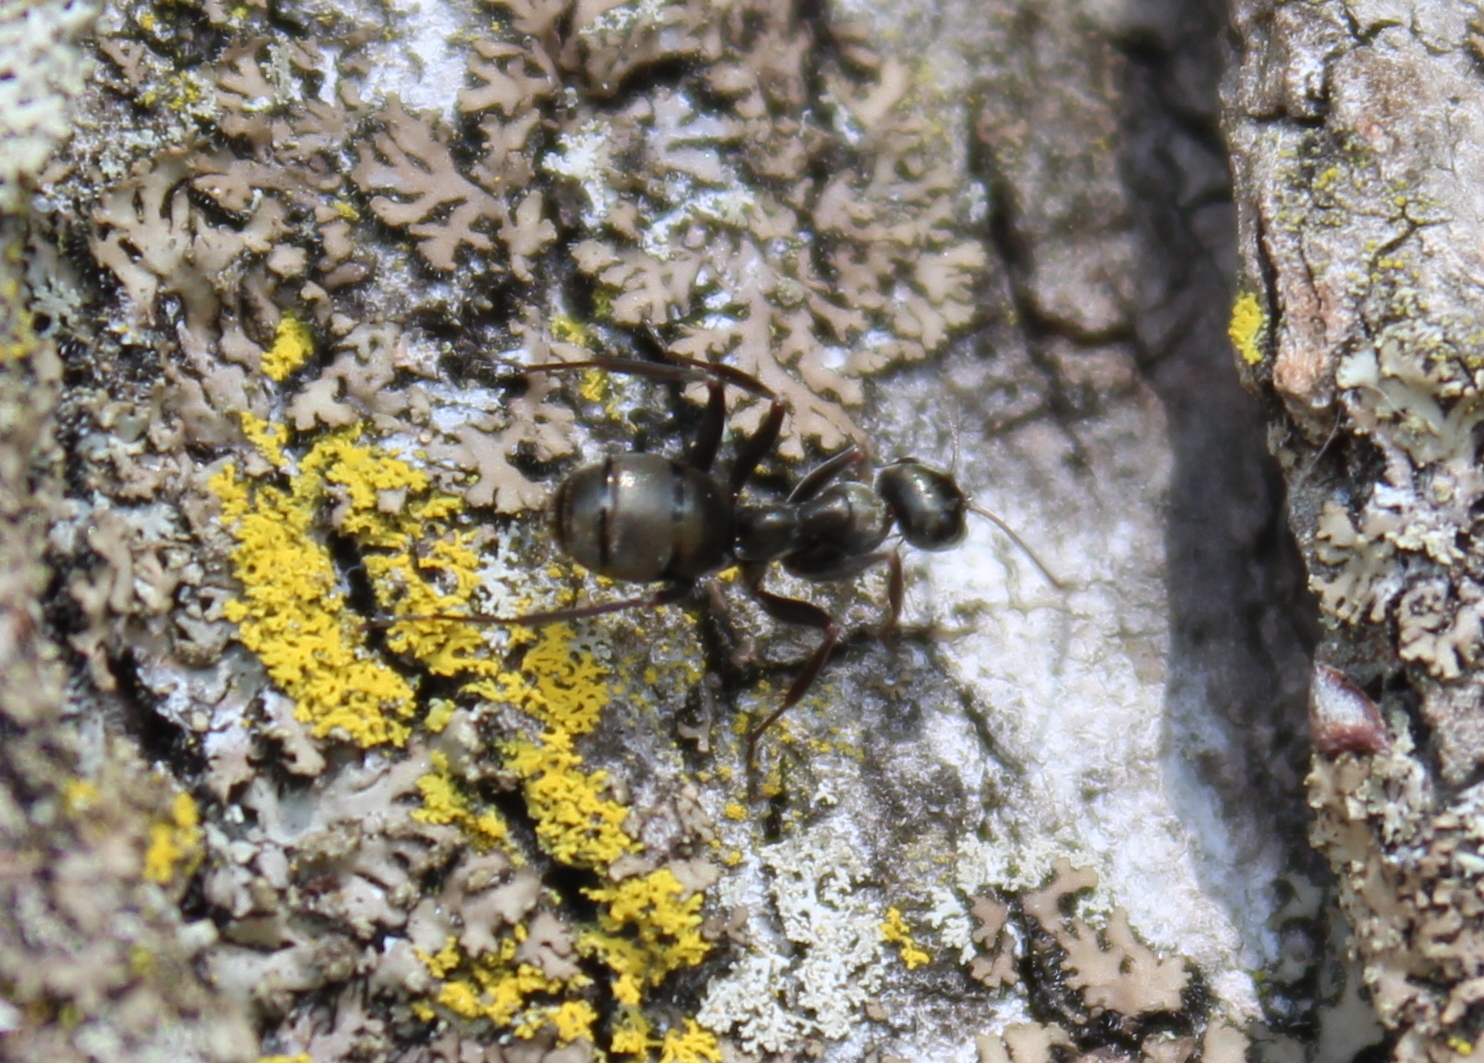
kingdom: Animalia
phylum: Arthropoda
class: Insecta
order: Hymenoptera
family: Formicidae
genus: Formica
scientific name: Formica
